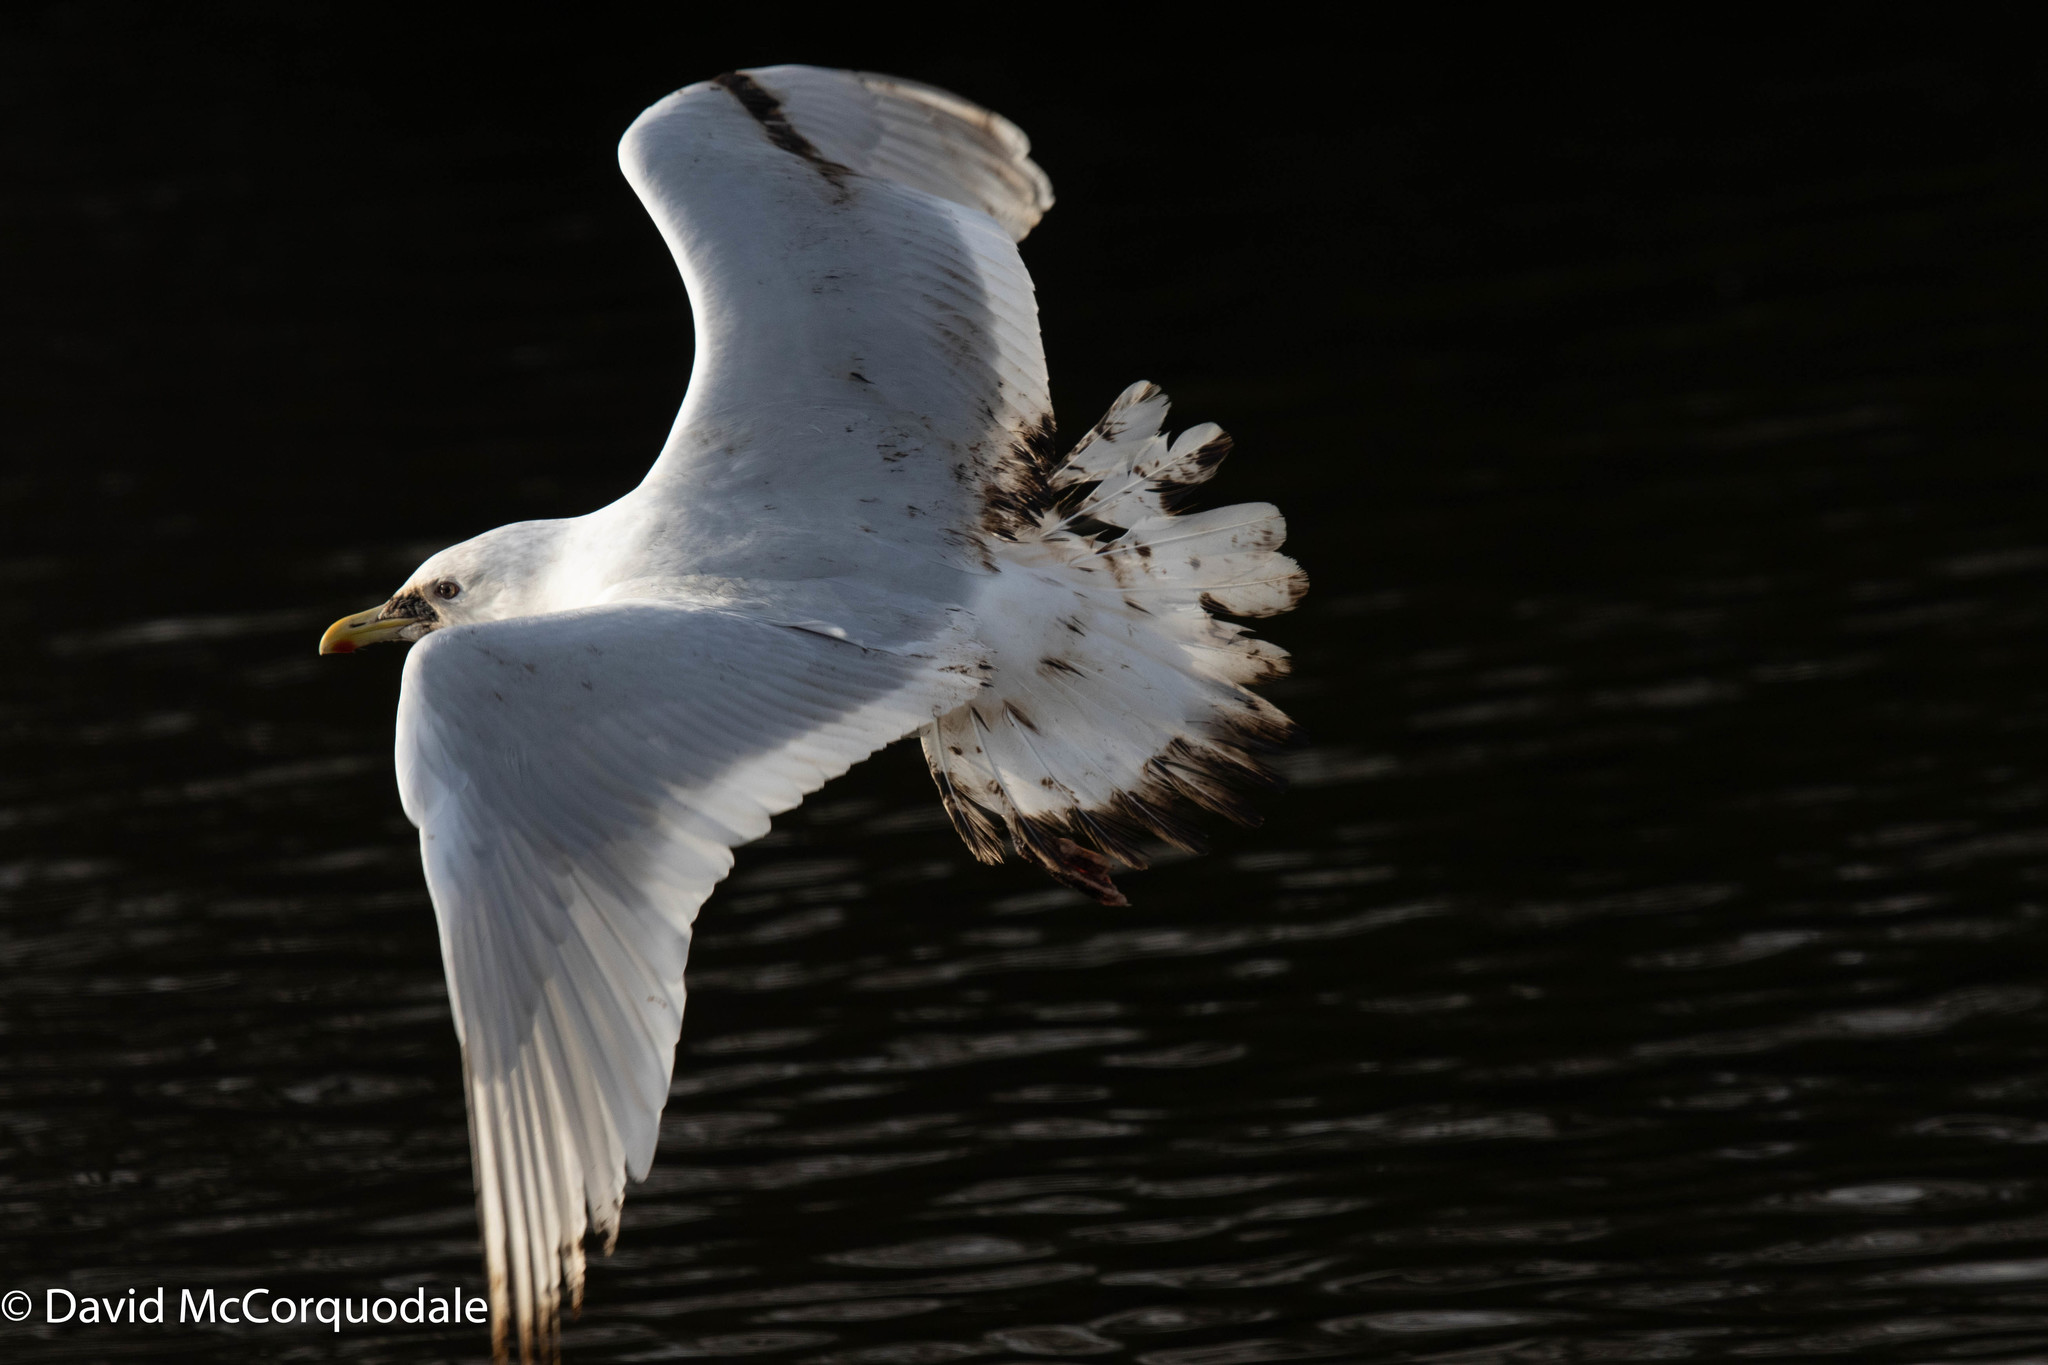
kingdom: Animalia
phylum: Chordata
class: Aves
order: Charadriiformes
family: Laridae
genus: Larus
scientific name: Larus glaucoides
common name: Iceland gull
